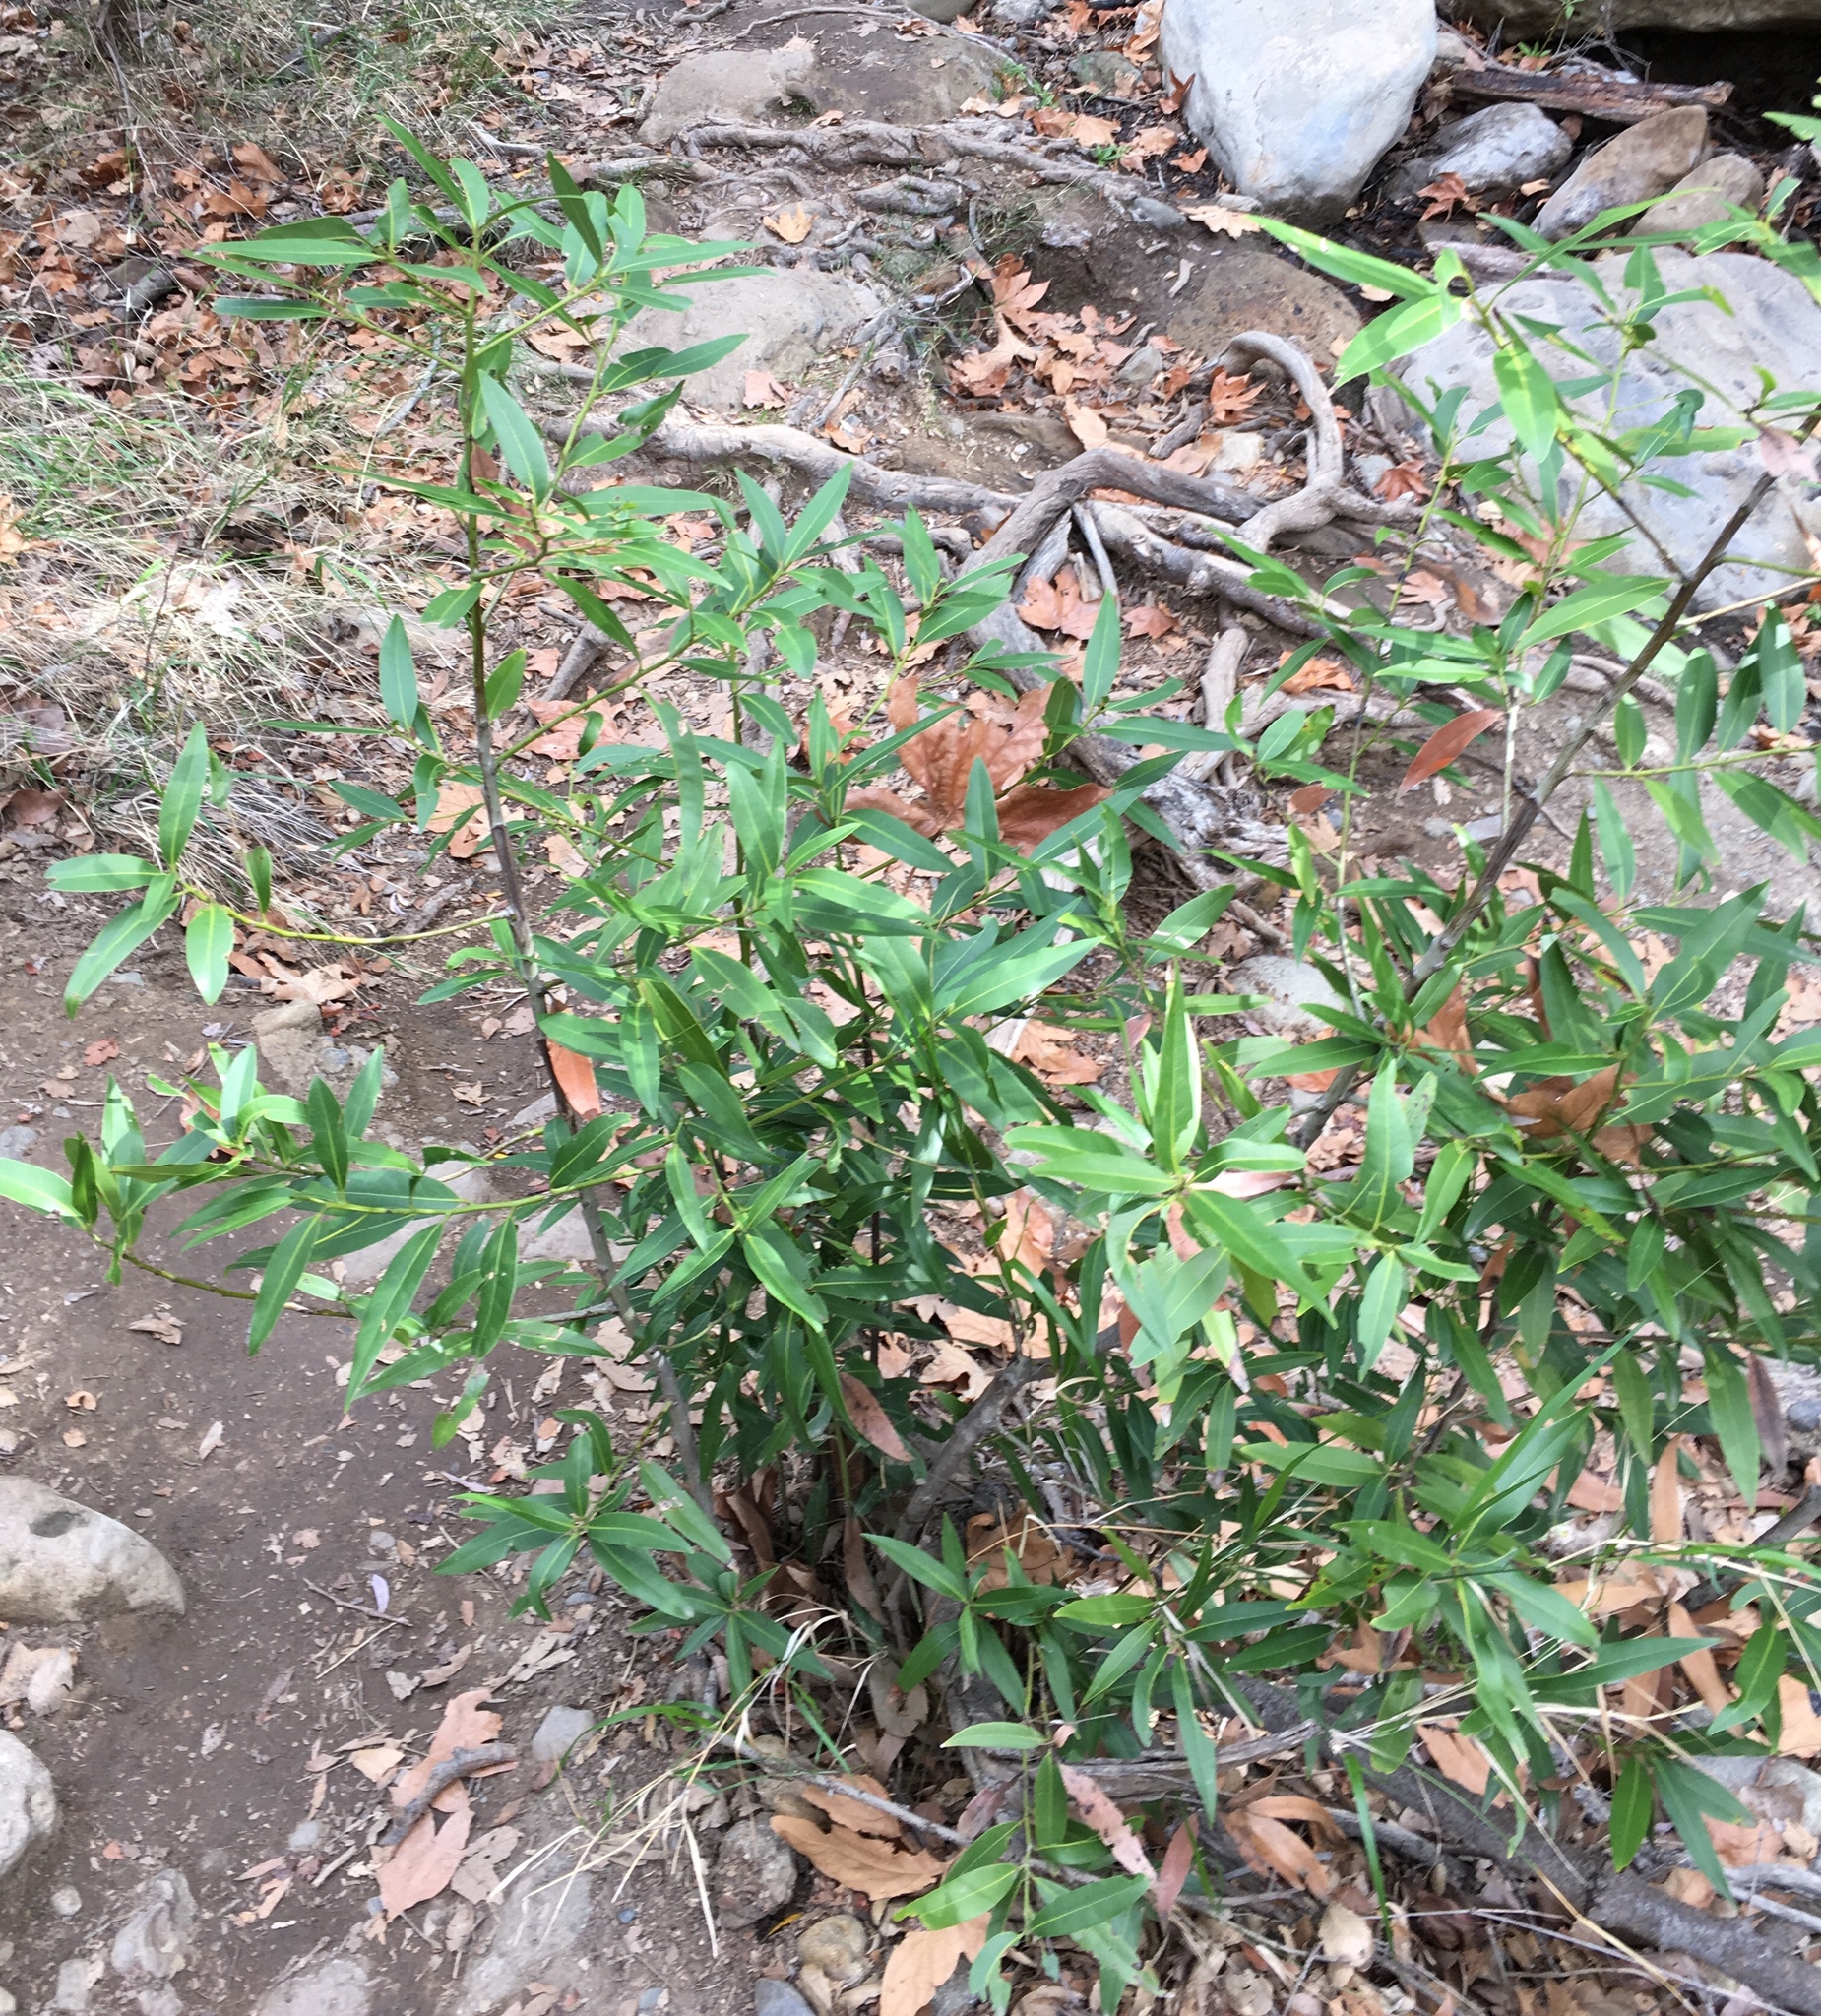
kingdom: Plantae
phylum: Tracheophyta
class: Magnoliopsida
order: Laurales
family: Lauraceae
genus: Umbellularia
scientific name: Umbellularia californica
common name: California bay
